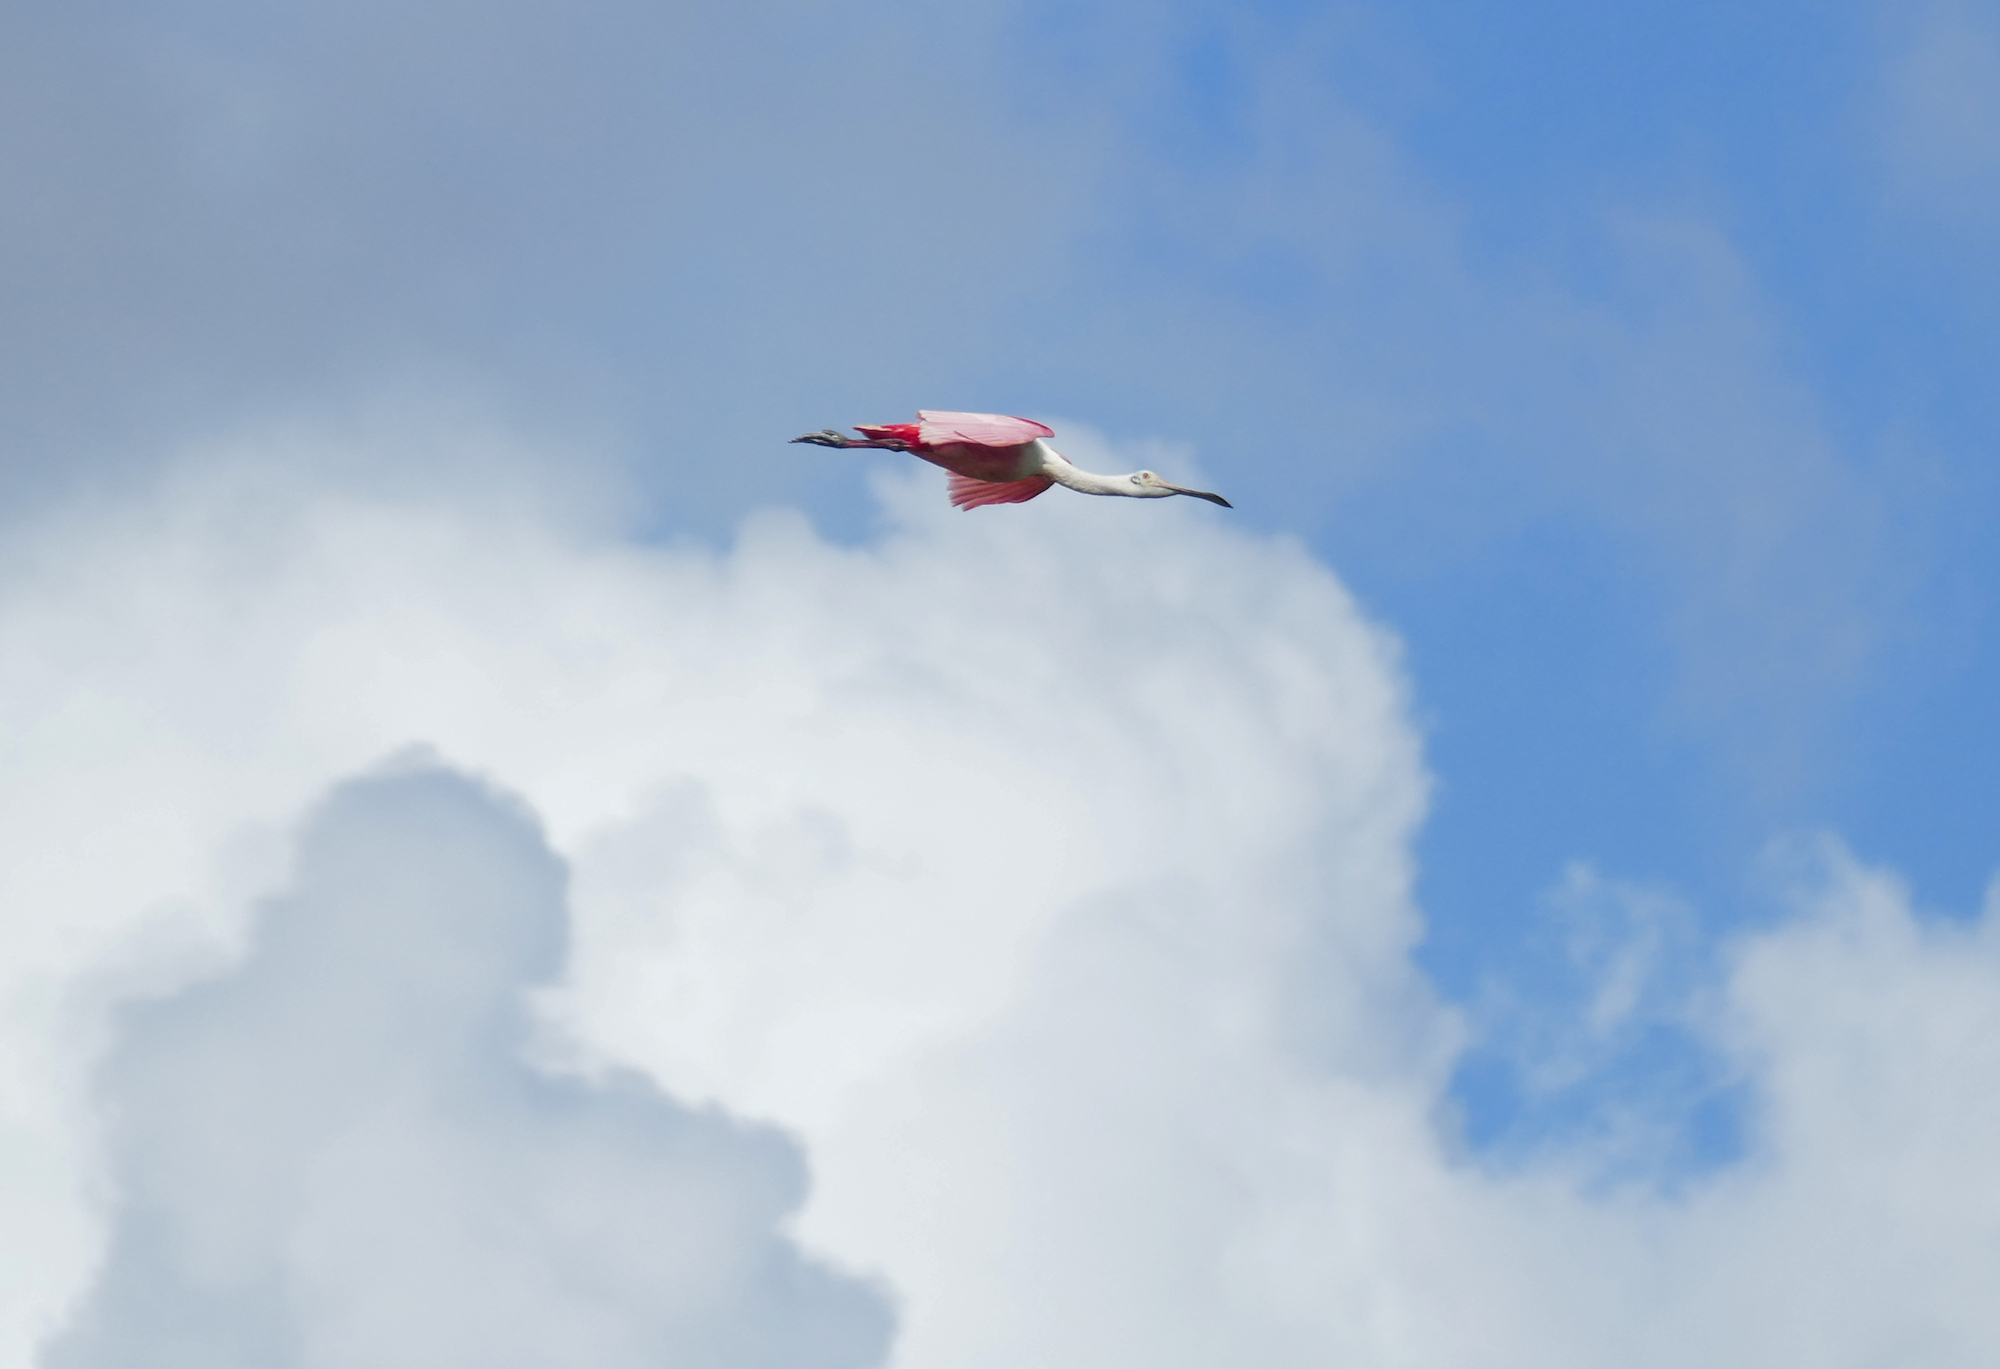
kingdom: Animalia
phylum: Chordata
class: Aves
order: Pelecaniformes
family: Threskiornithidae
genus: Platalea
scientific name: Platalea ajaja
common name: Roseate spoonbill
